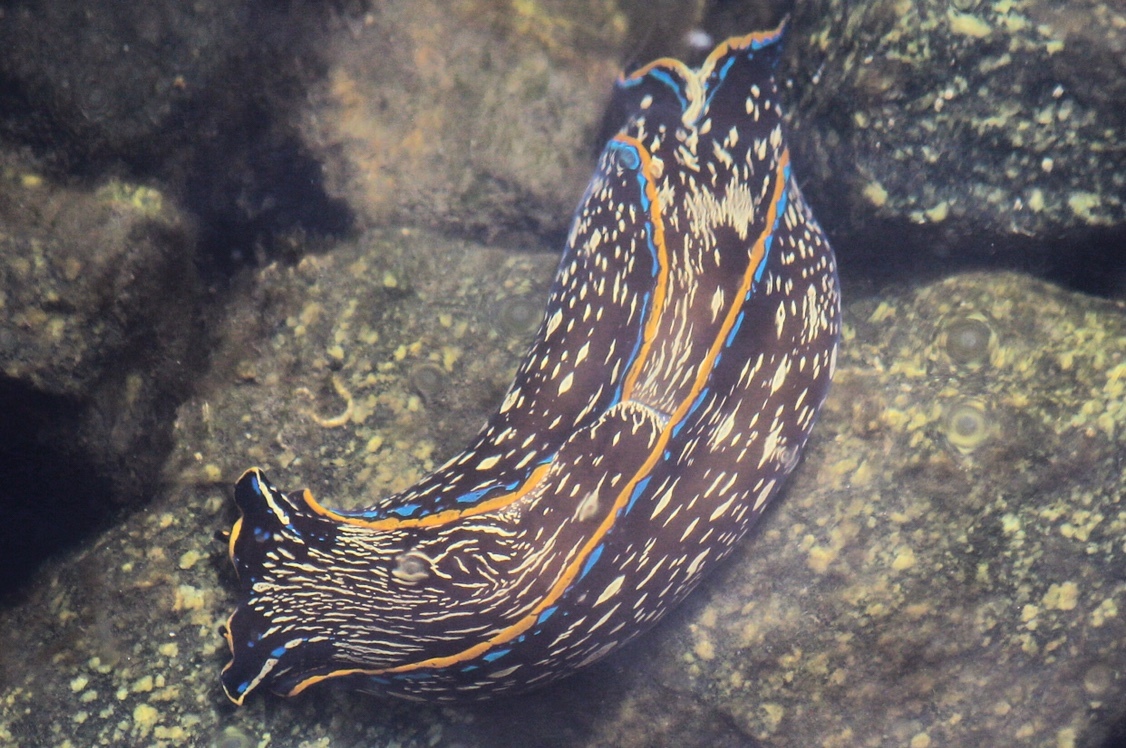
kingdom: Animalia
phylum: Mollusca
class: Gastropoda
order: Cephalaspidea
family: Aglajidae
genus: Navanax
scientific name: Navanax inermis
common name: California aglaja
